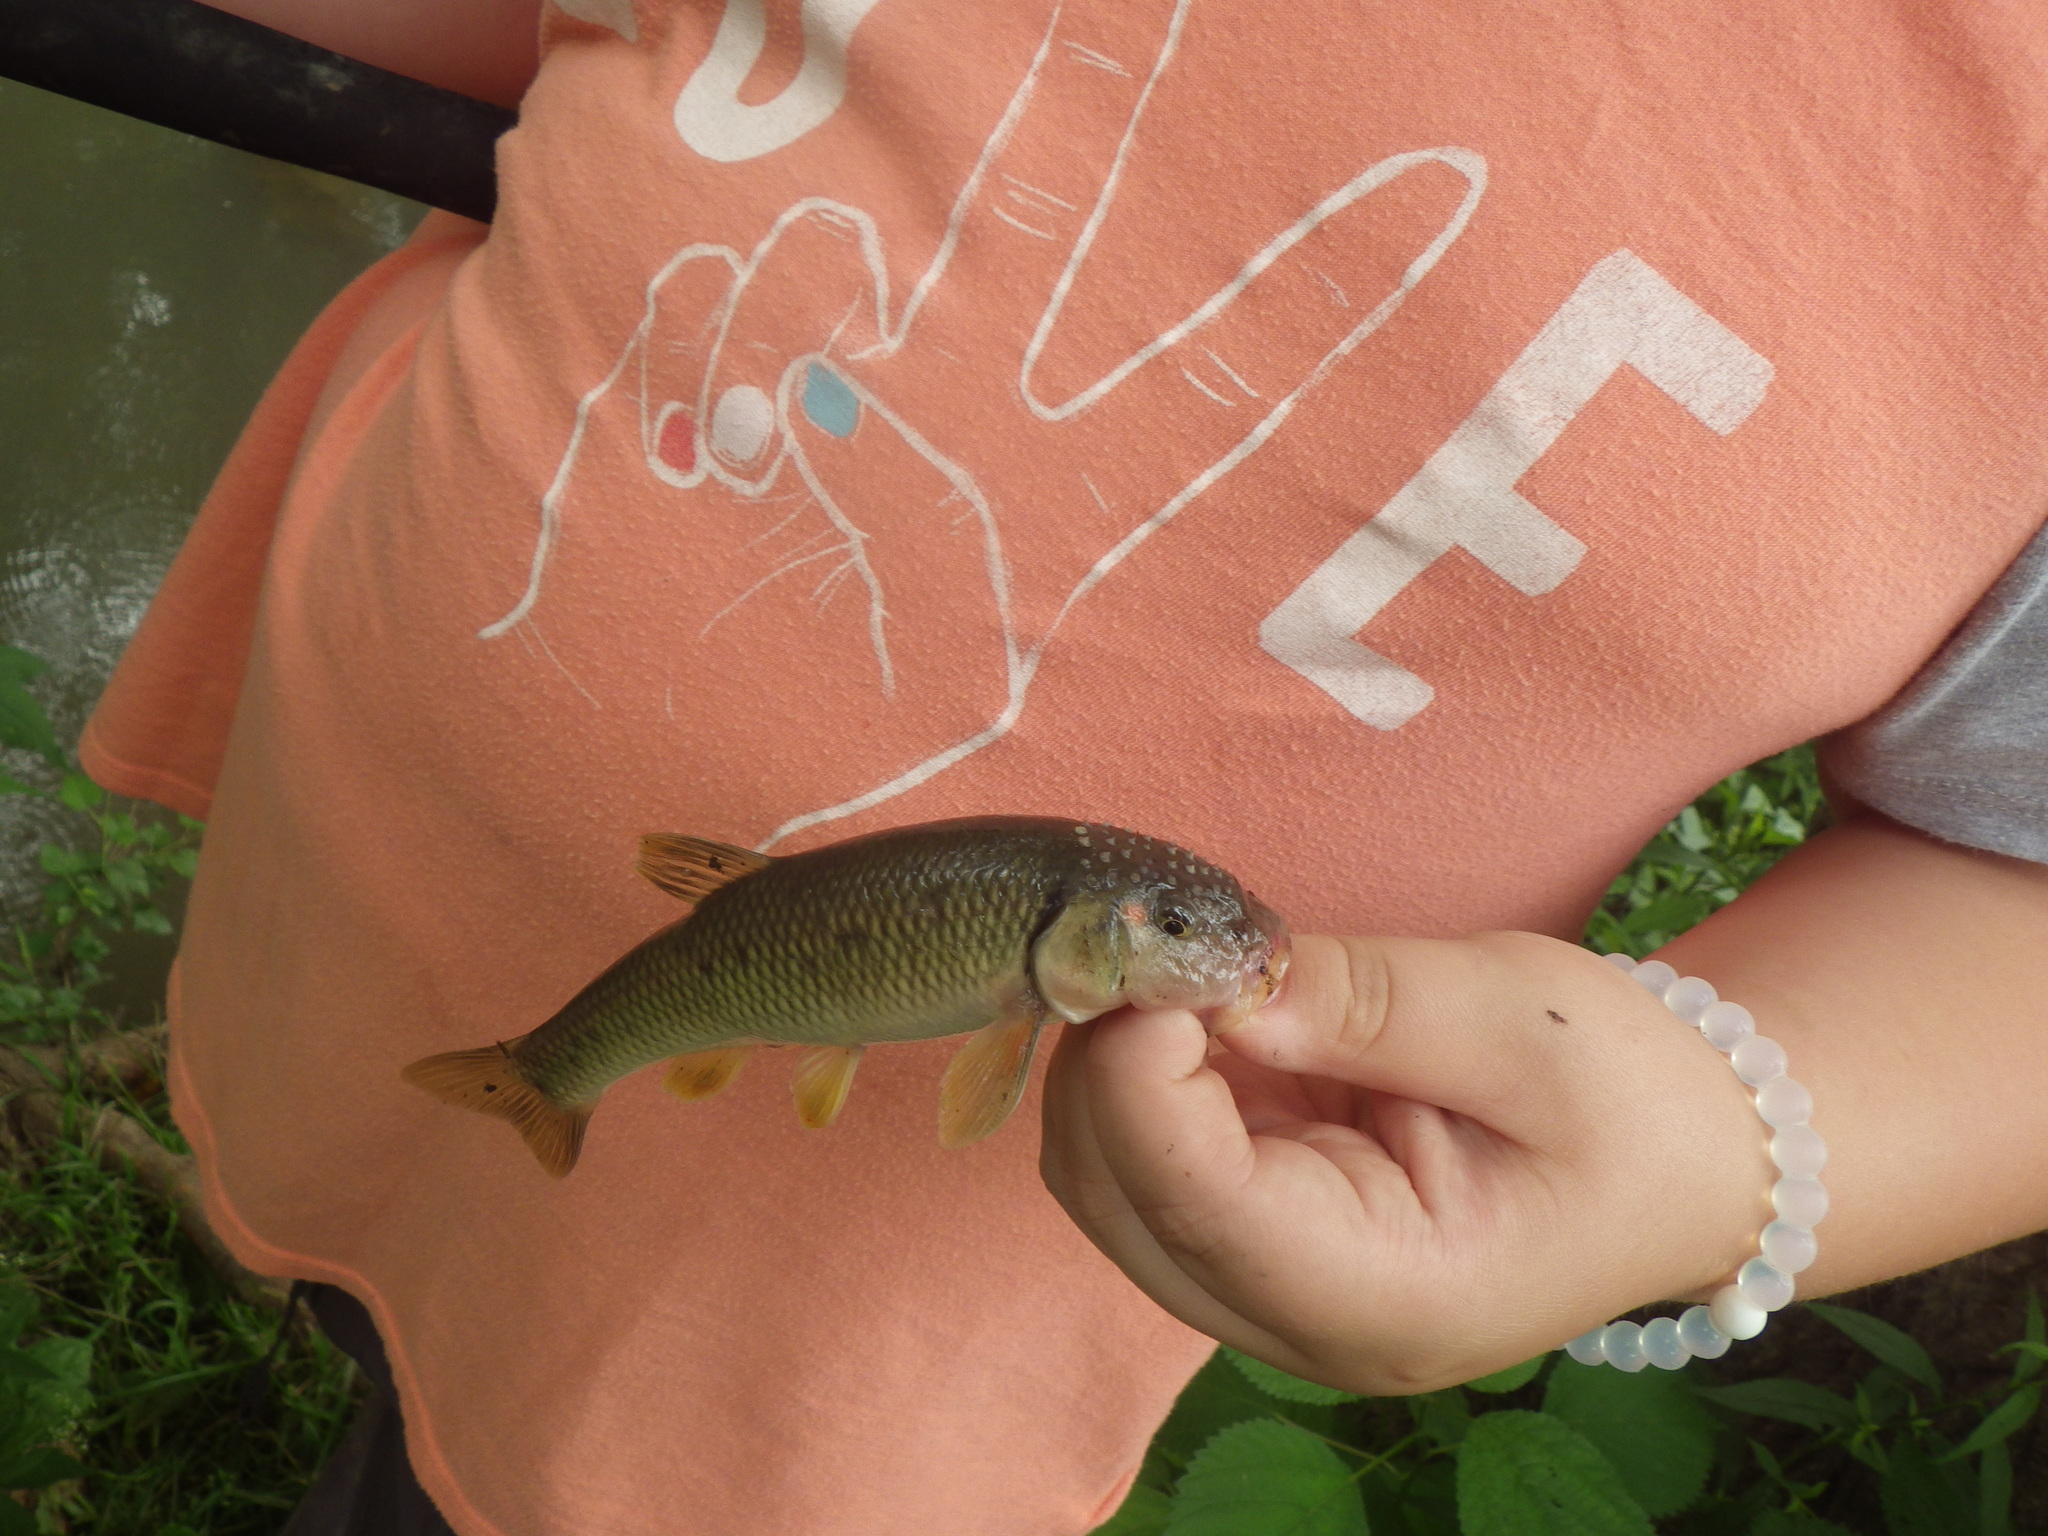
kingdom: Animalia
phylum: Chordata
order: Cypriniformes
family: Cyprinidae
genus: Nocomis
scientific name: Nocomis biguttatus
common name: Hornyhead chub
